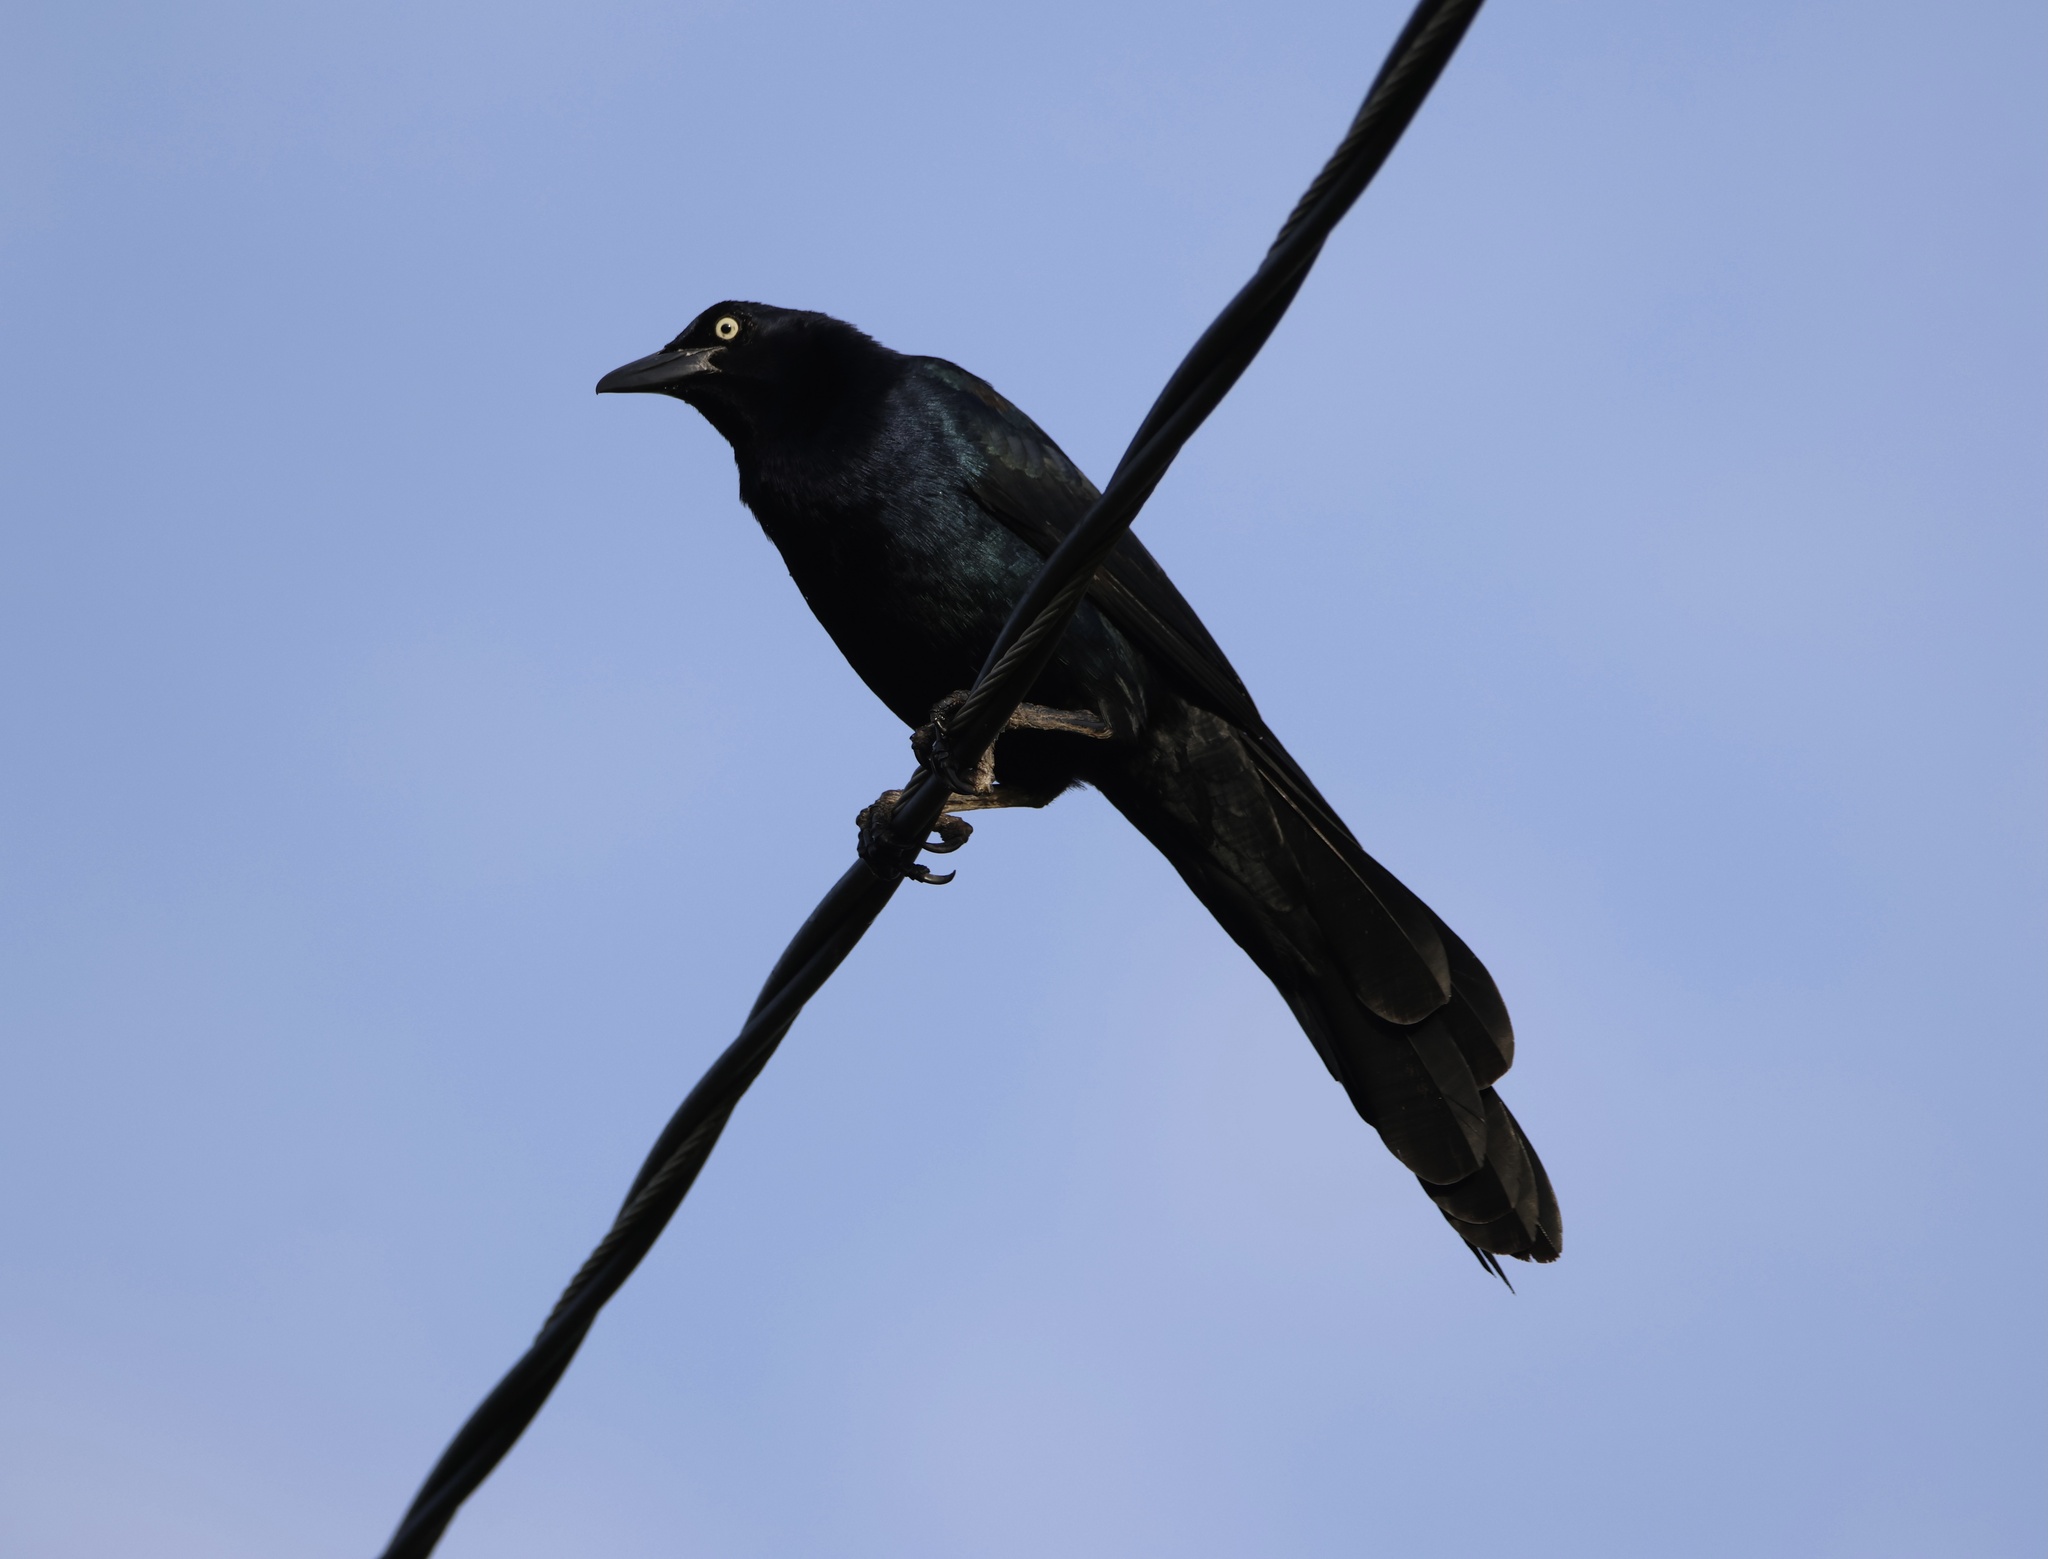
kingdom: Animalia
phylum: Chordata
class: Aves
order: Passeriformes
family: Icteridae
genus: Quiscalus
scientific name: Quiscalus mexicanus
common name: Great-tailed grackle
